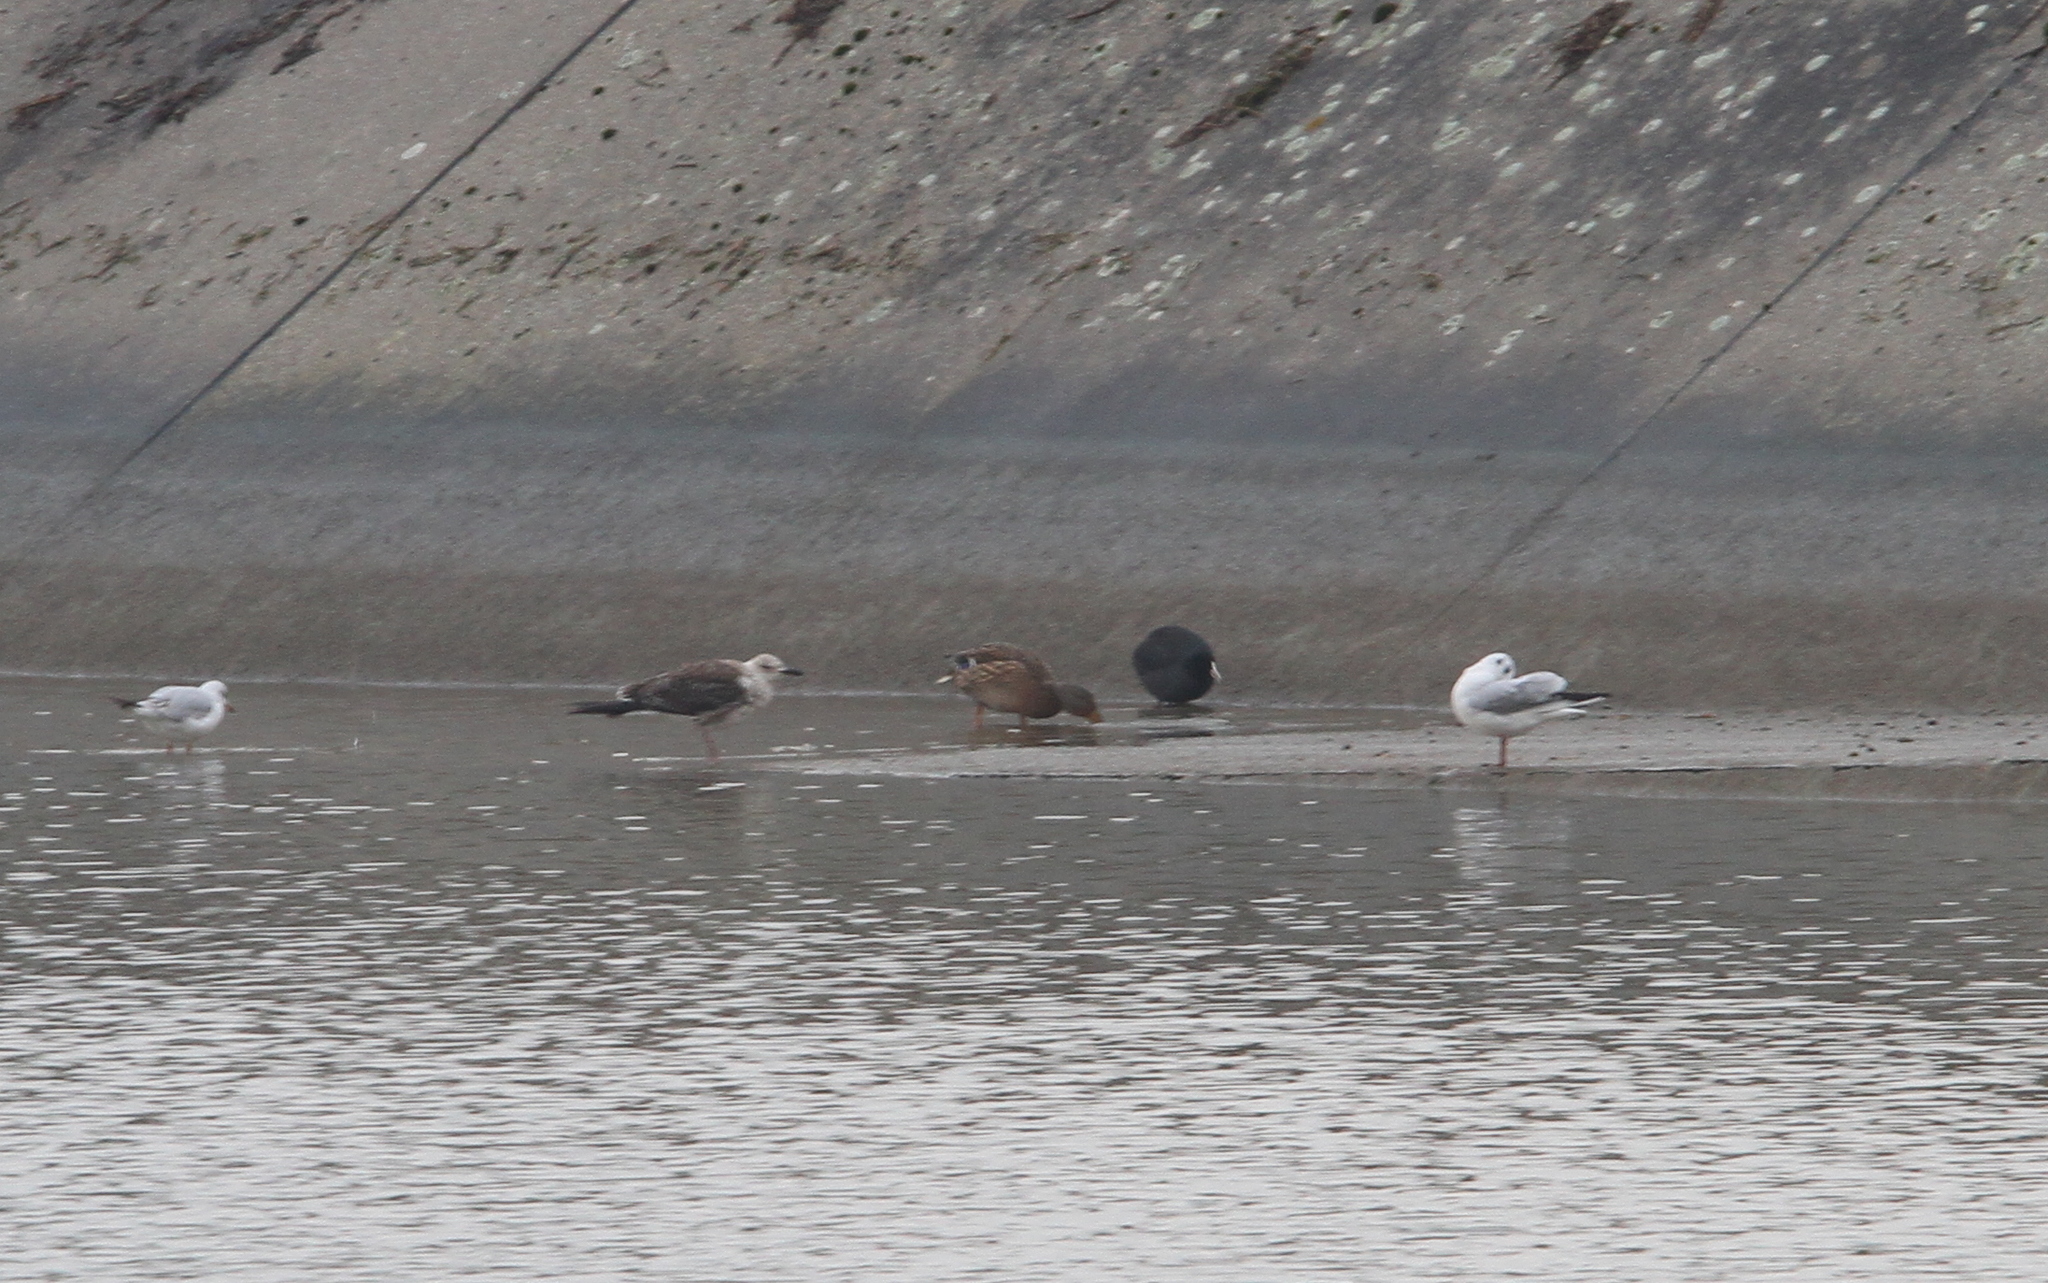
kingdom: Animalia
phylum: Chordata
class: Aves
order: Charadriiformes
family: Laridae
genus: Larus
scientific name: Larus fuscus
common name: Lesser black-backed gull
